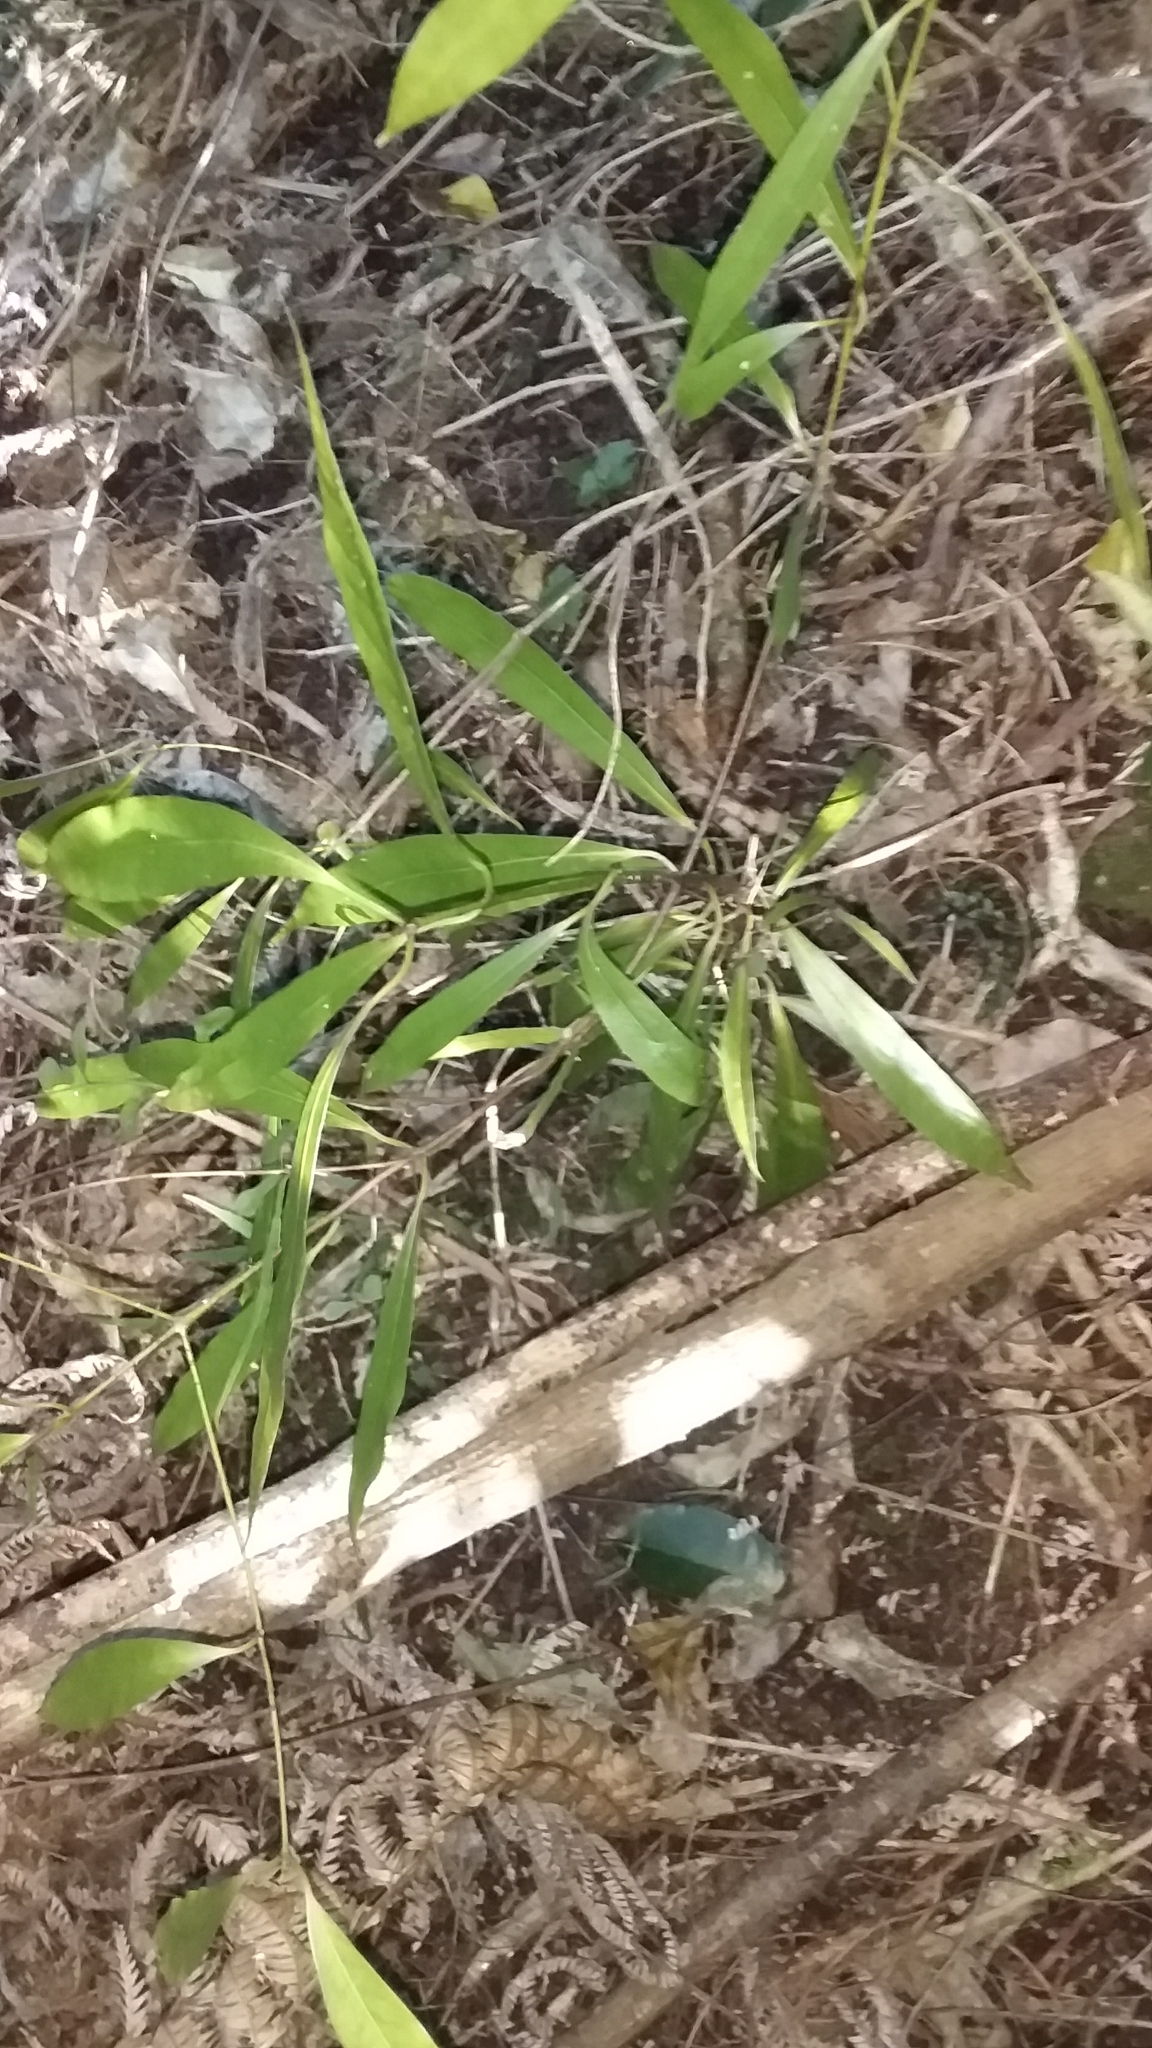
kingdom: Plantae
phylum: Tracheophyta
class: Magnoliopsida
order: Laurales
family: Lauraceae
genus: Beilschmiedia
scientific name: Beilschmiedia tawa
